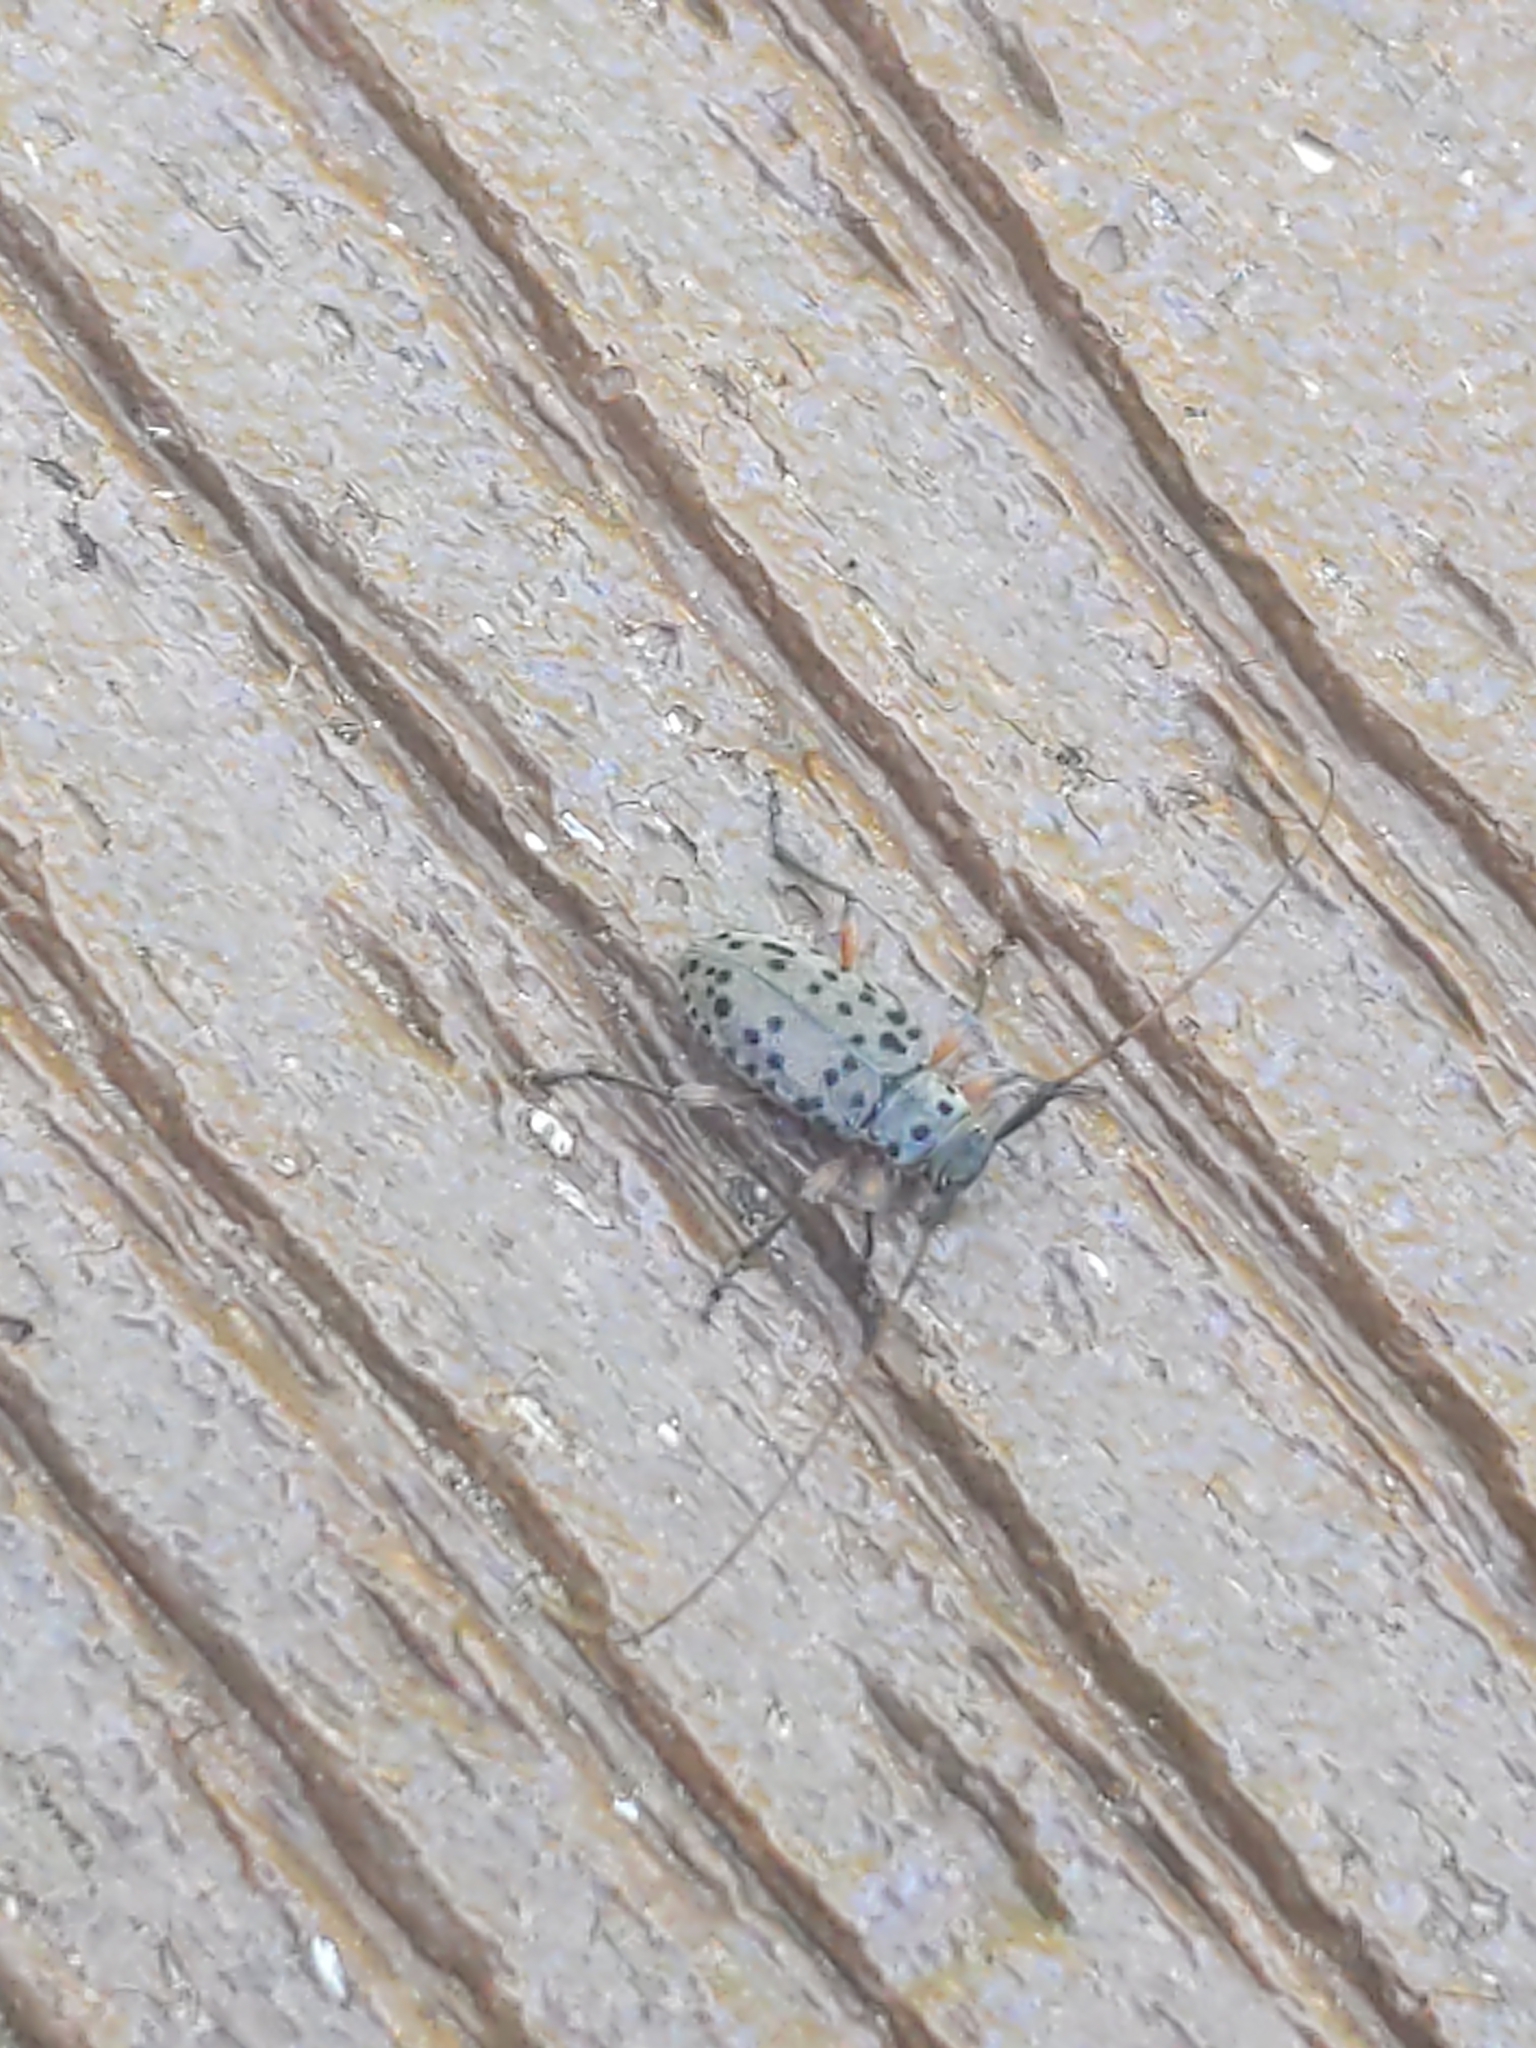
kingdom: Animalia
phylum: Arthropoda
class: Insecta
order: Coleoptera
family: Cerambycidae
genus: Hyperplatys
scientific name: Hyperplatys aspersa
